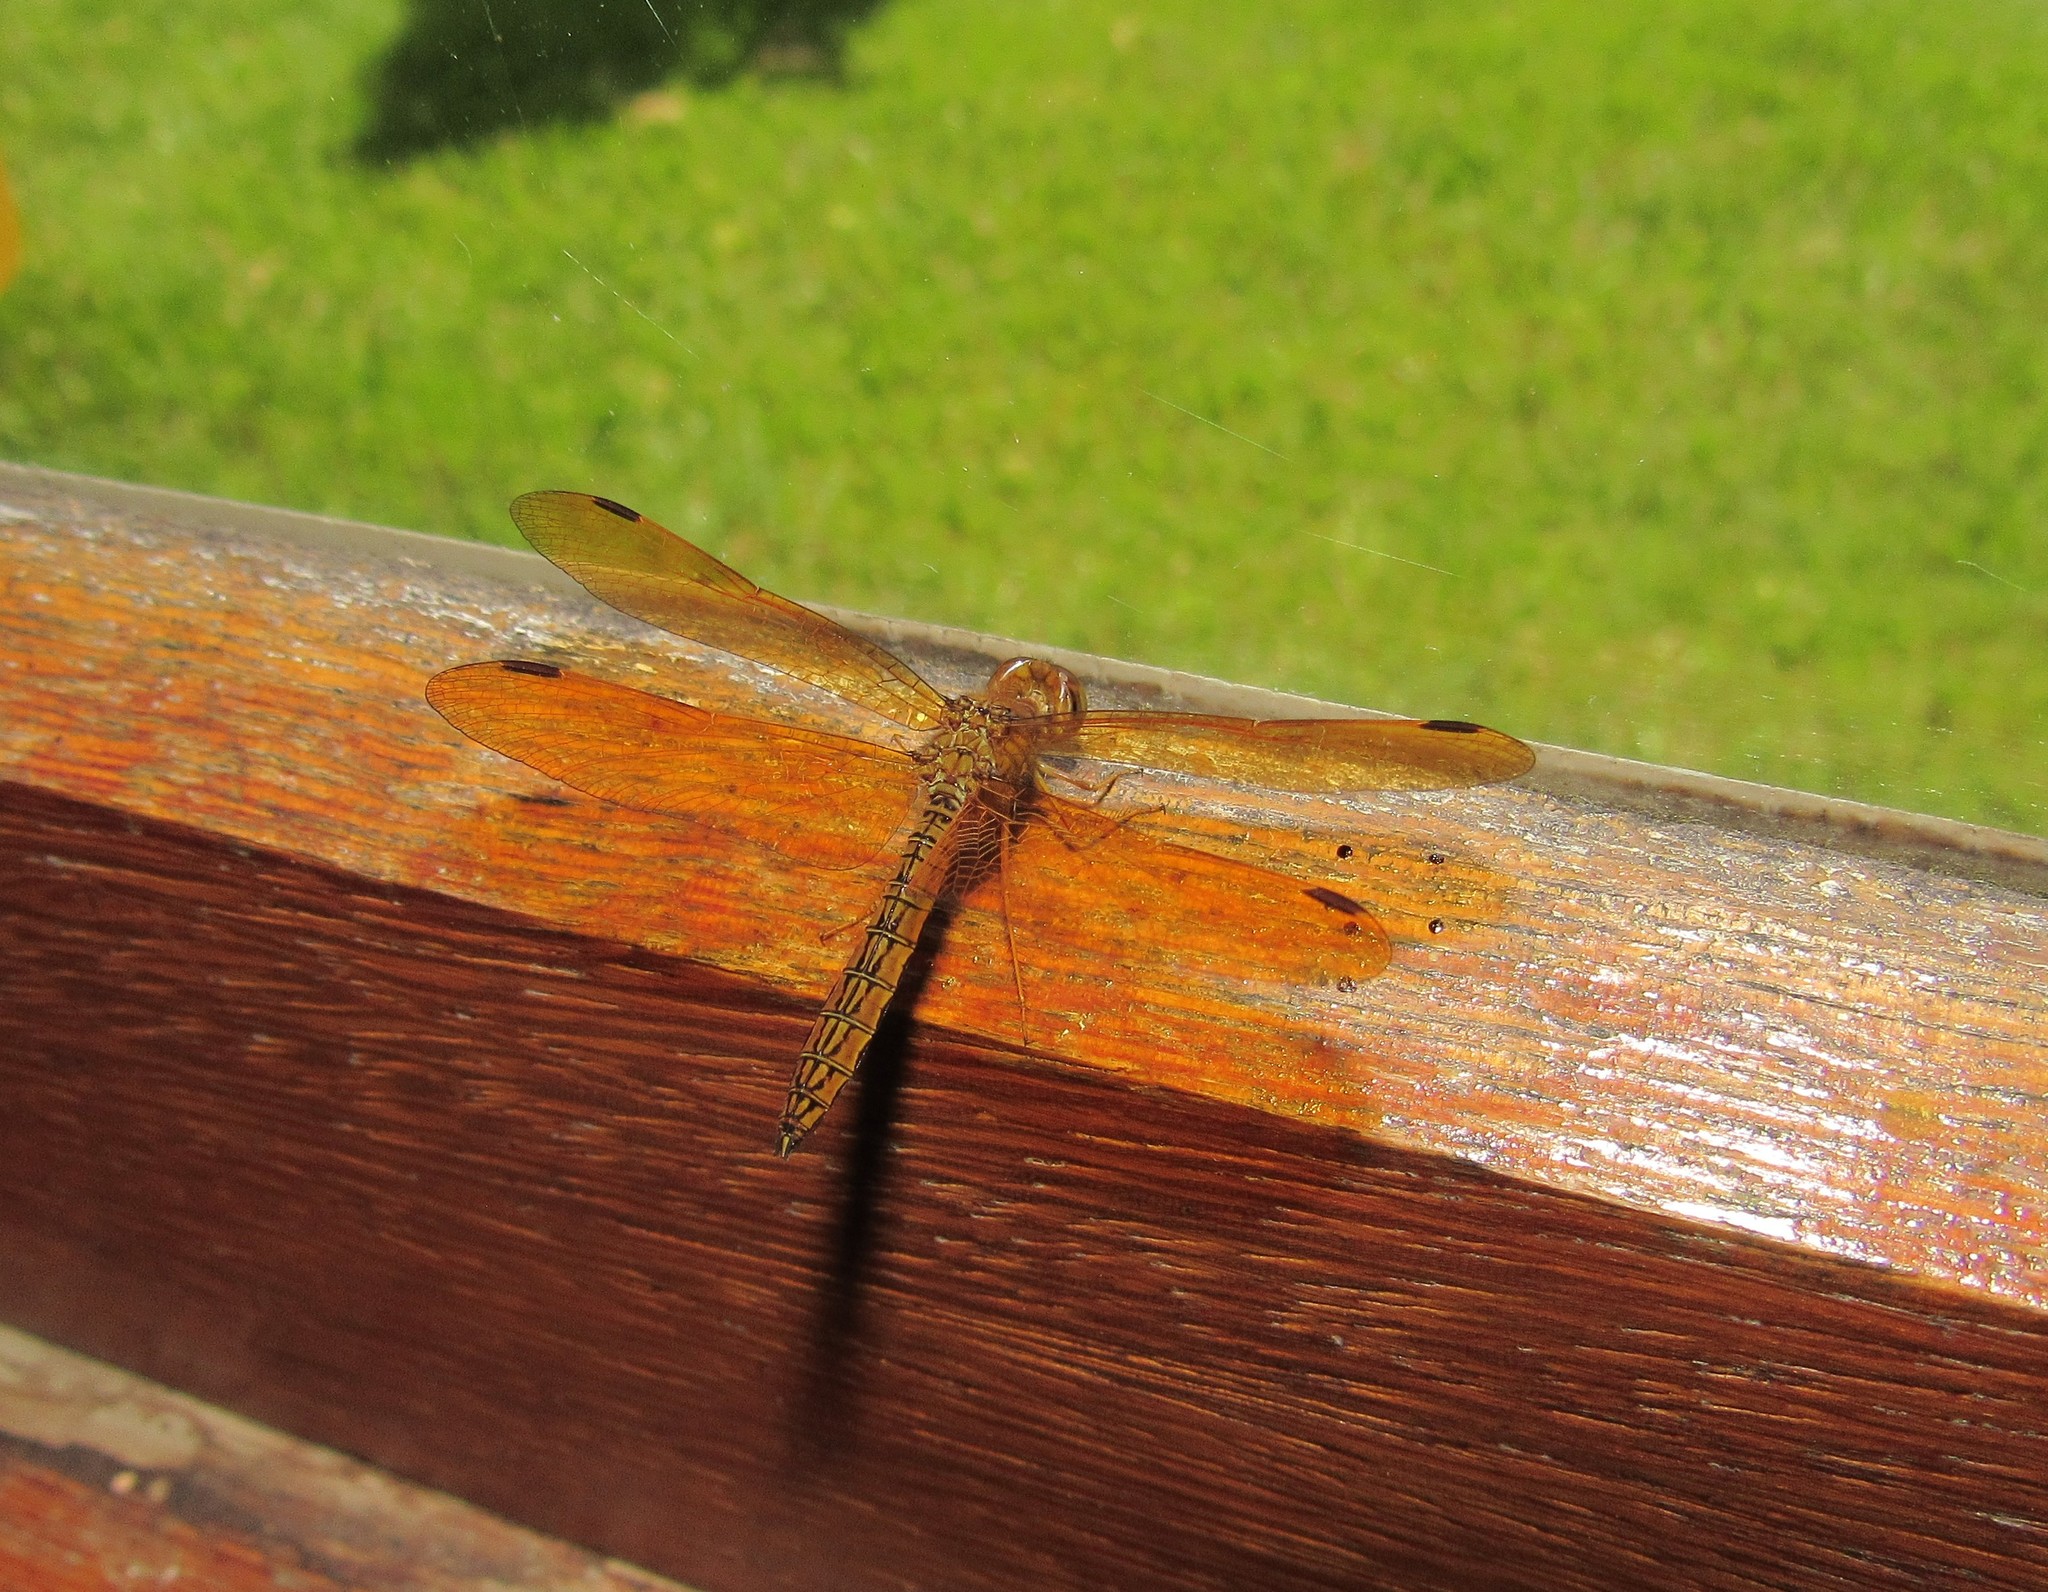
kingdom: Animalia
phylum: Arthropoda
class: Insecta
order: Odonata
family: Libellulidae
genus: Perithemis
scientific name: Perithemis icteroptera
